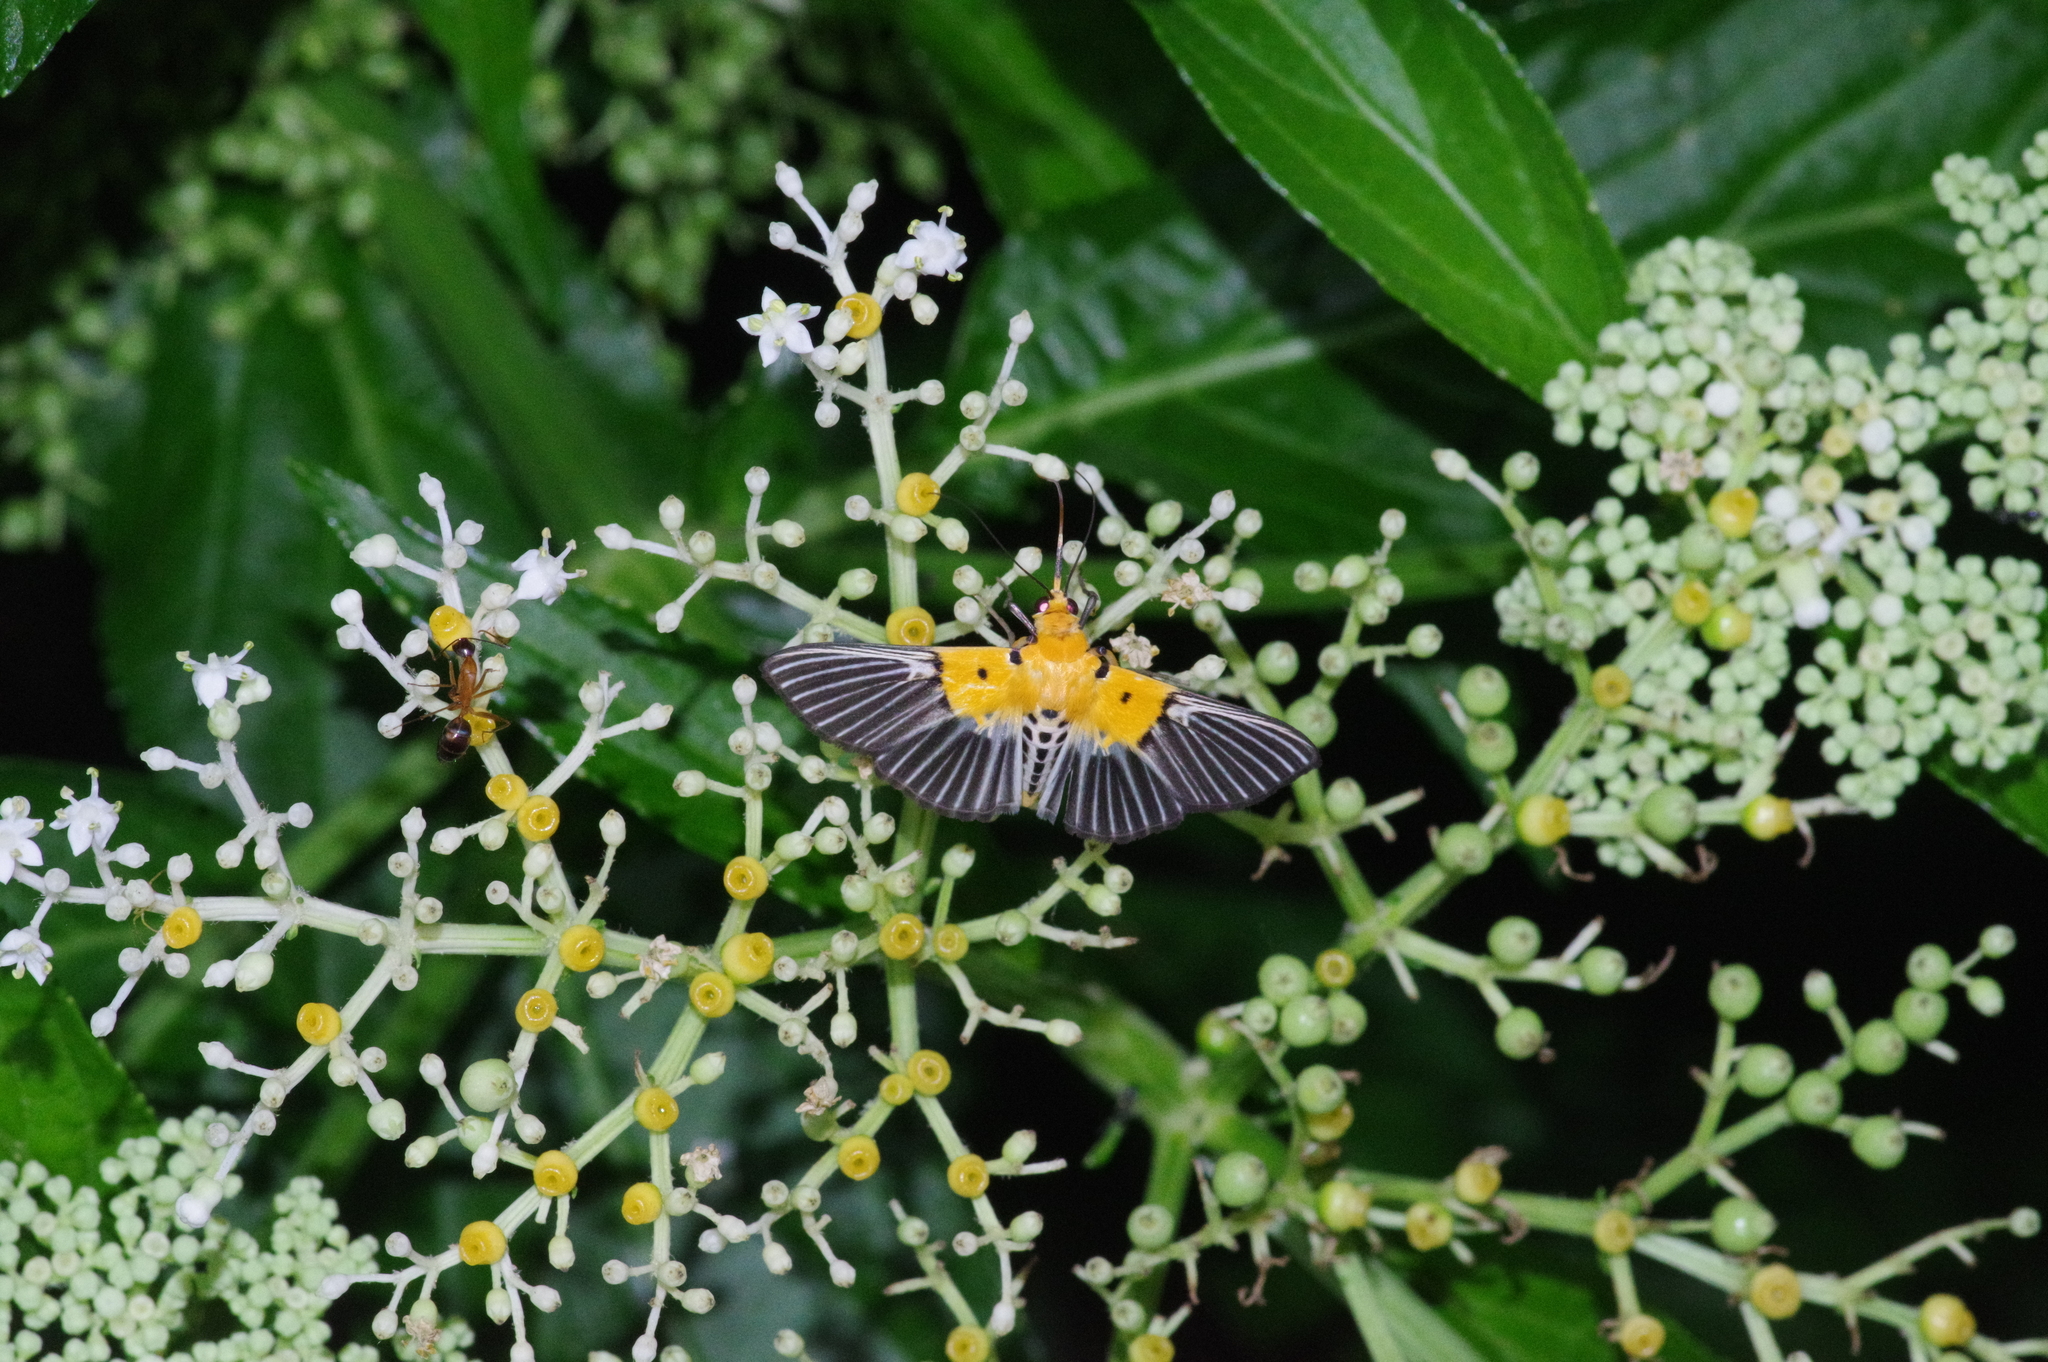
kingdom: Animalia
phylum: Arthropoda
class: Insecta
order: Lepidoptera
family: Crambidae
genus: Nevrina
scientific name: Nevrina procopia
